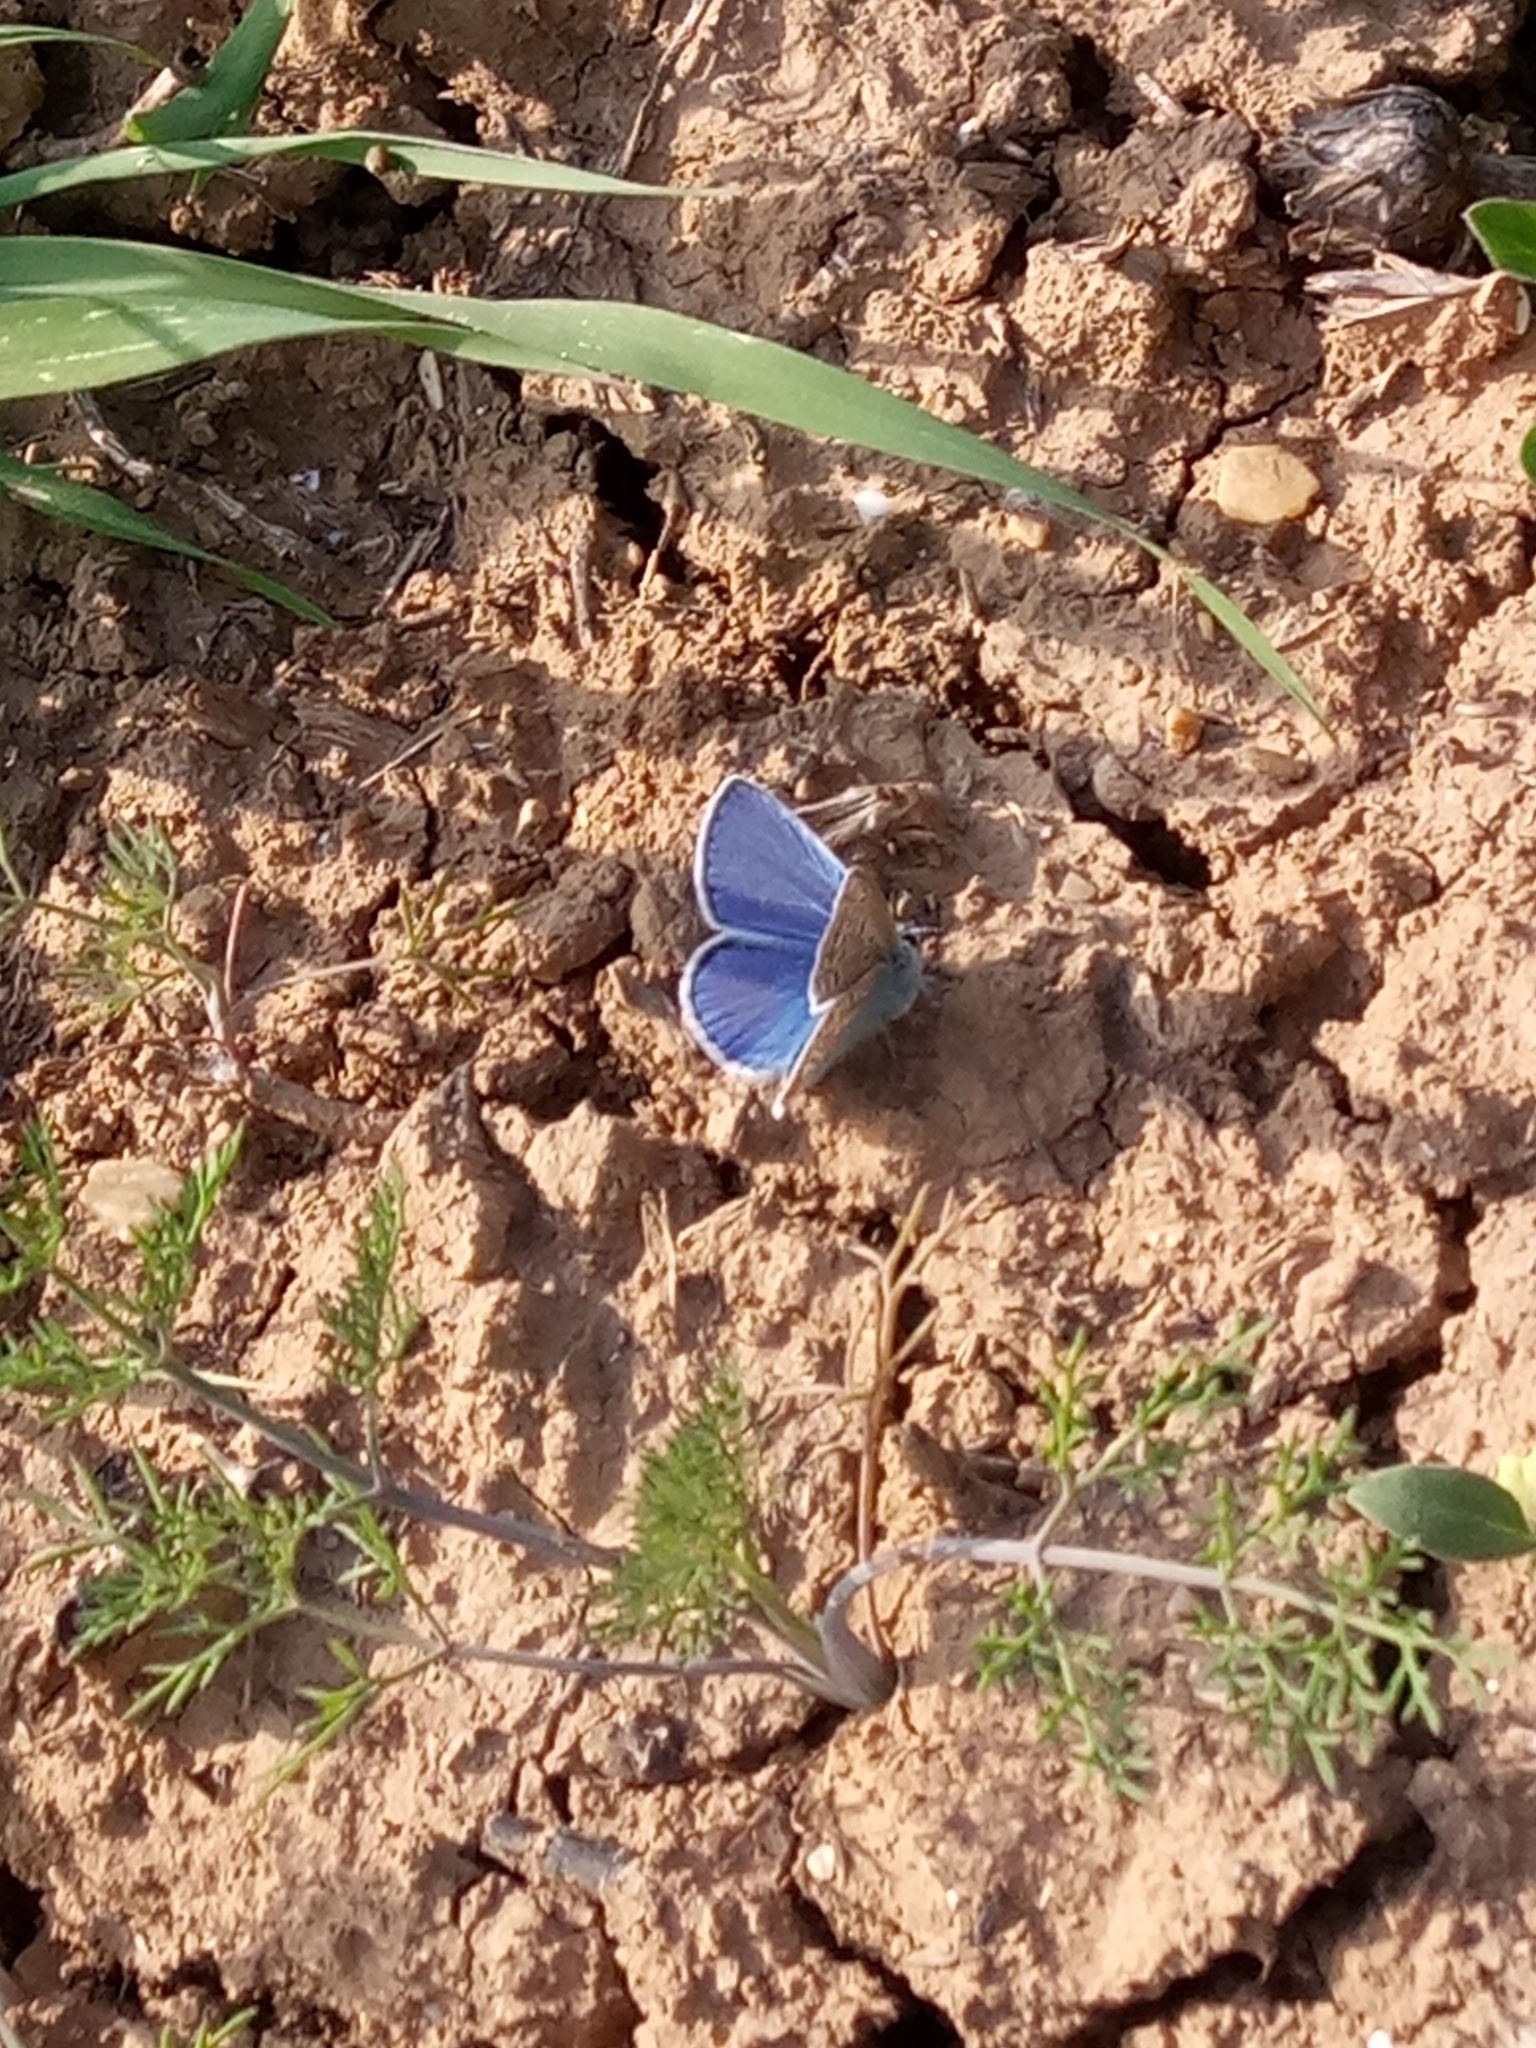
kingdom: Animalia
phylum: Arthropoda
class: Insecta
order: Lepidoptera
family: Lycaenidae
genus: Polyommatus
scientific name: Polyommatus celina
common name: Austaut's blue
